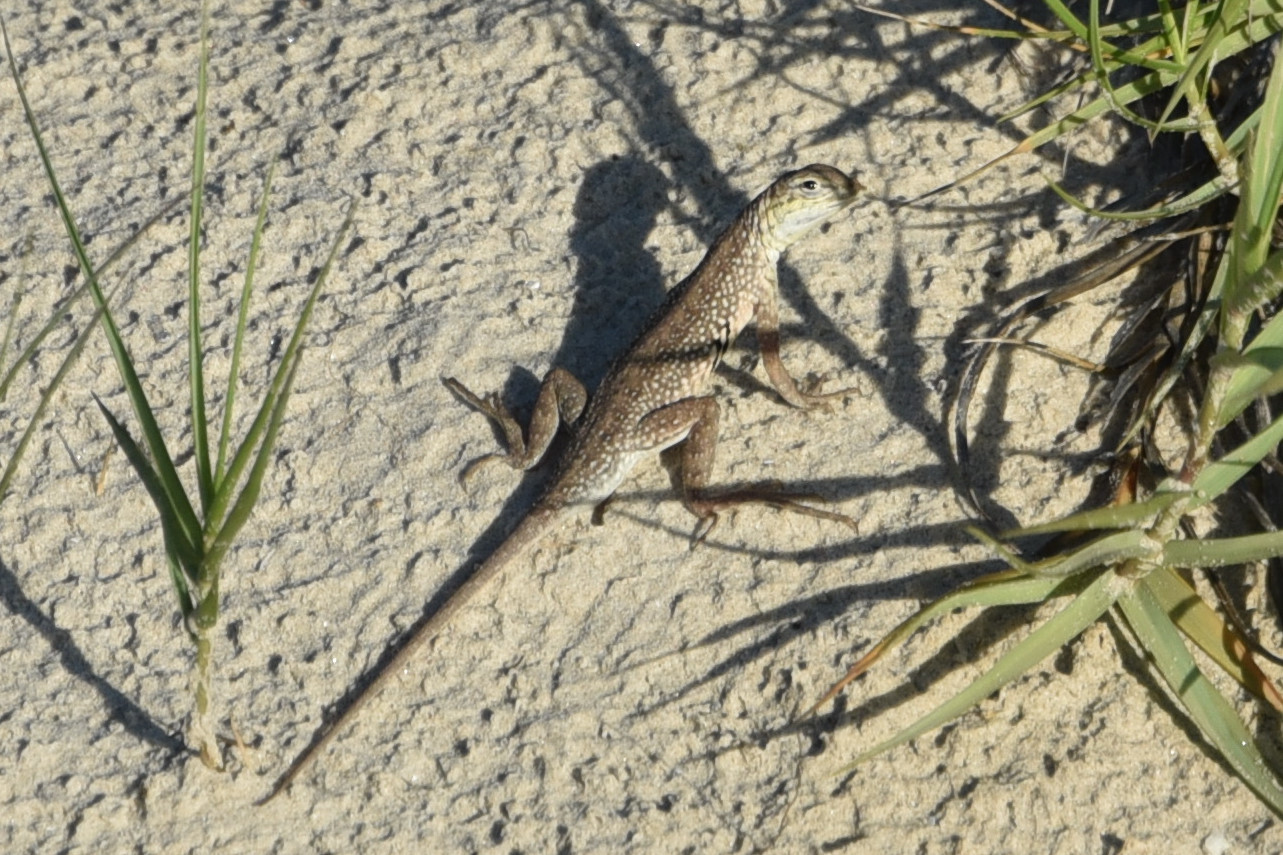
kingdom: Animalia
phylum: Chordata
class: Squamata
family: Phrynosomatidae
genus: Holbrookia
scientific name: Holbrookia propinqua
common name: Keeled earless lizard
